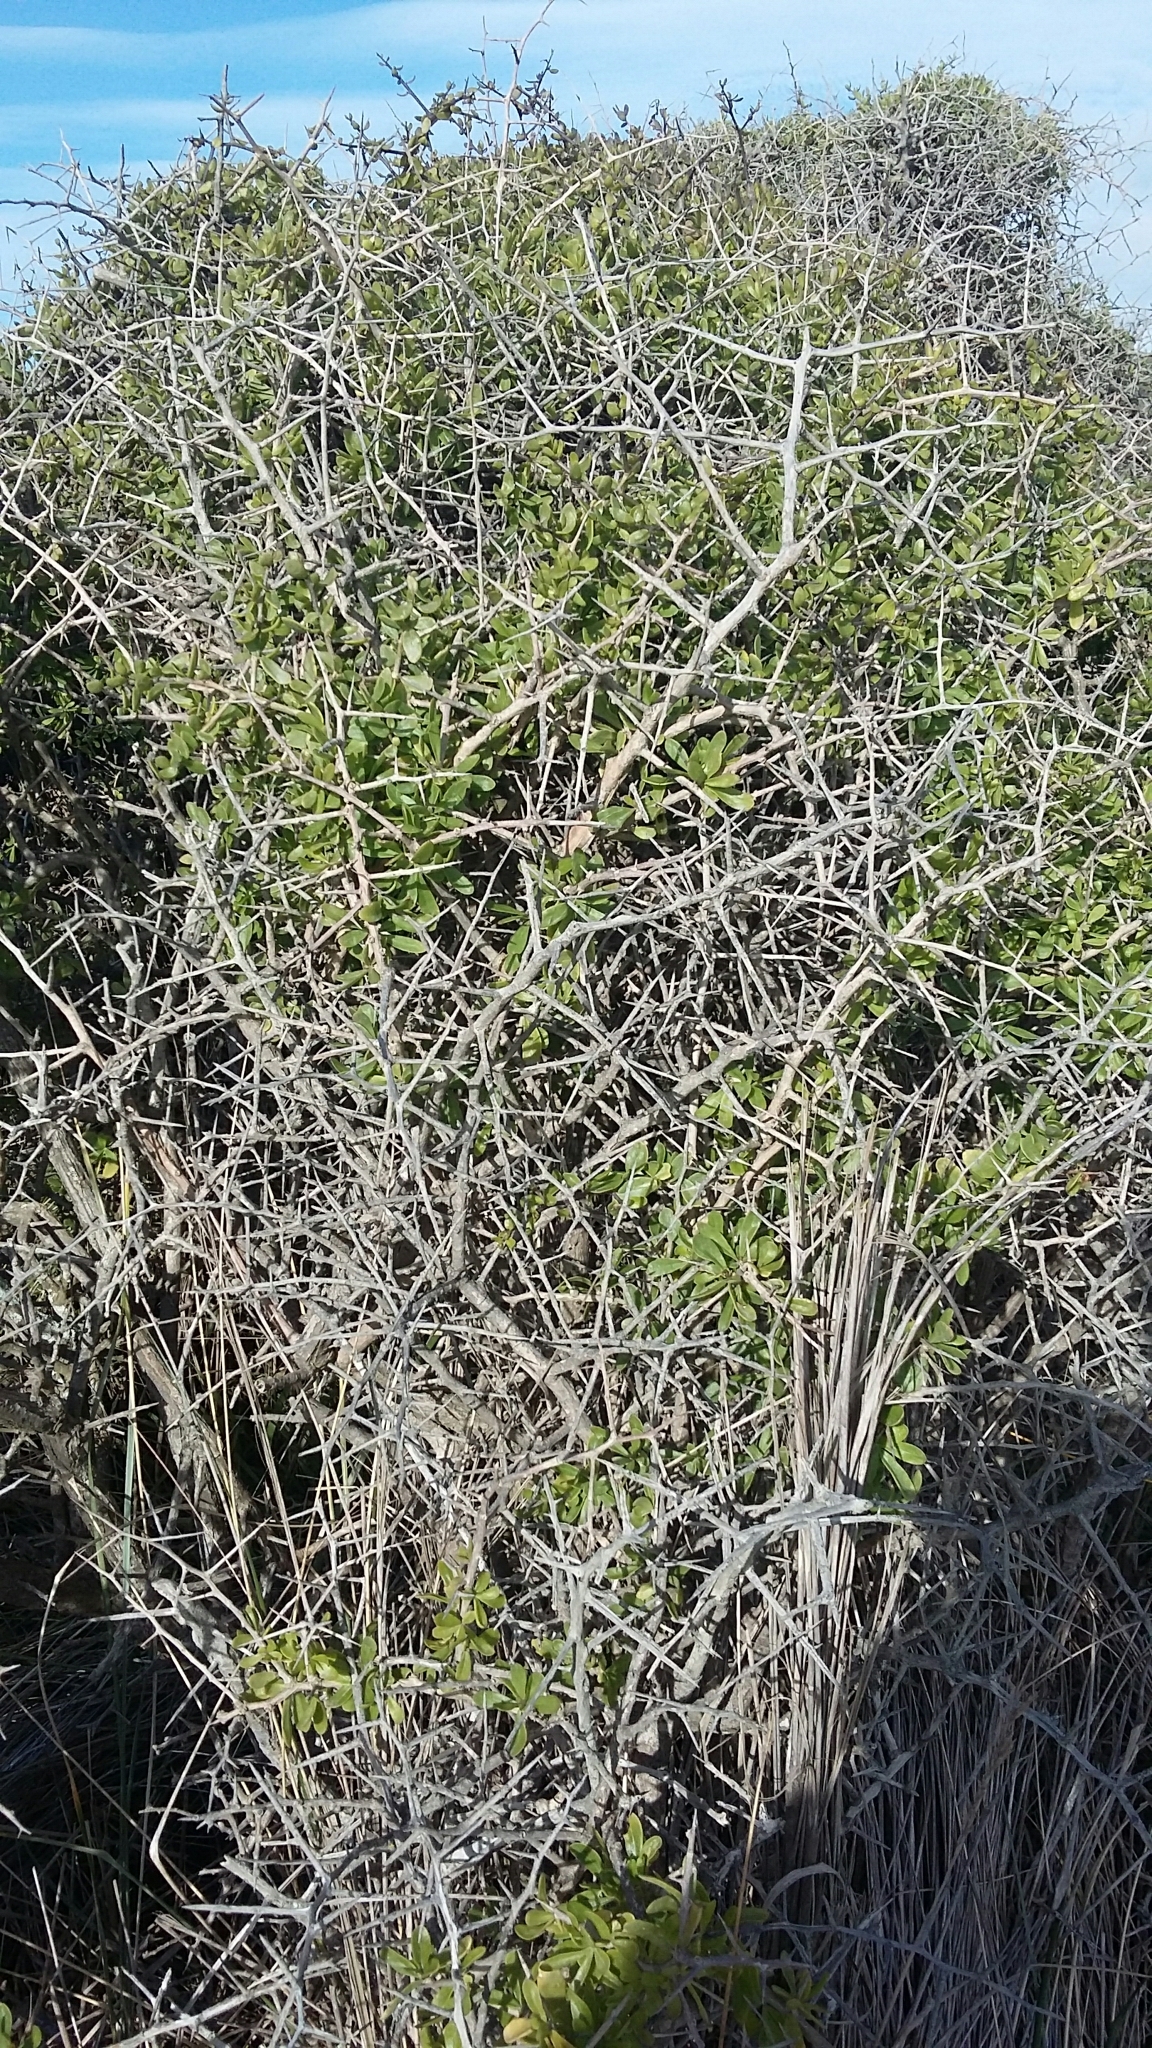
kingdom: Plantae
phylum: Tracheophyta
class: Magnoliopsida
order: Solanales
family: Solanaceae
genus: Lycium
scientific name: Lycium ferocissimum
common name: African boxthorn
